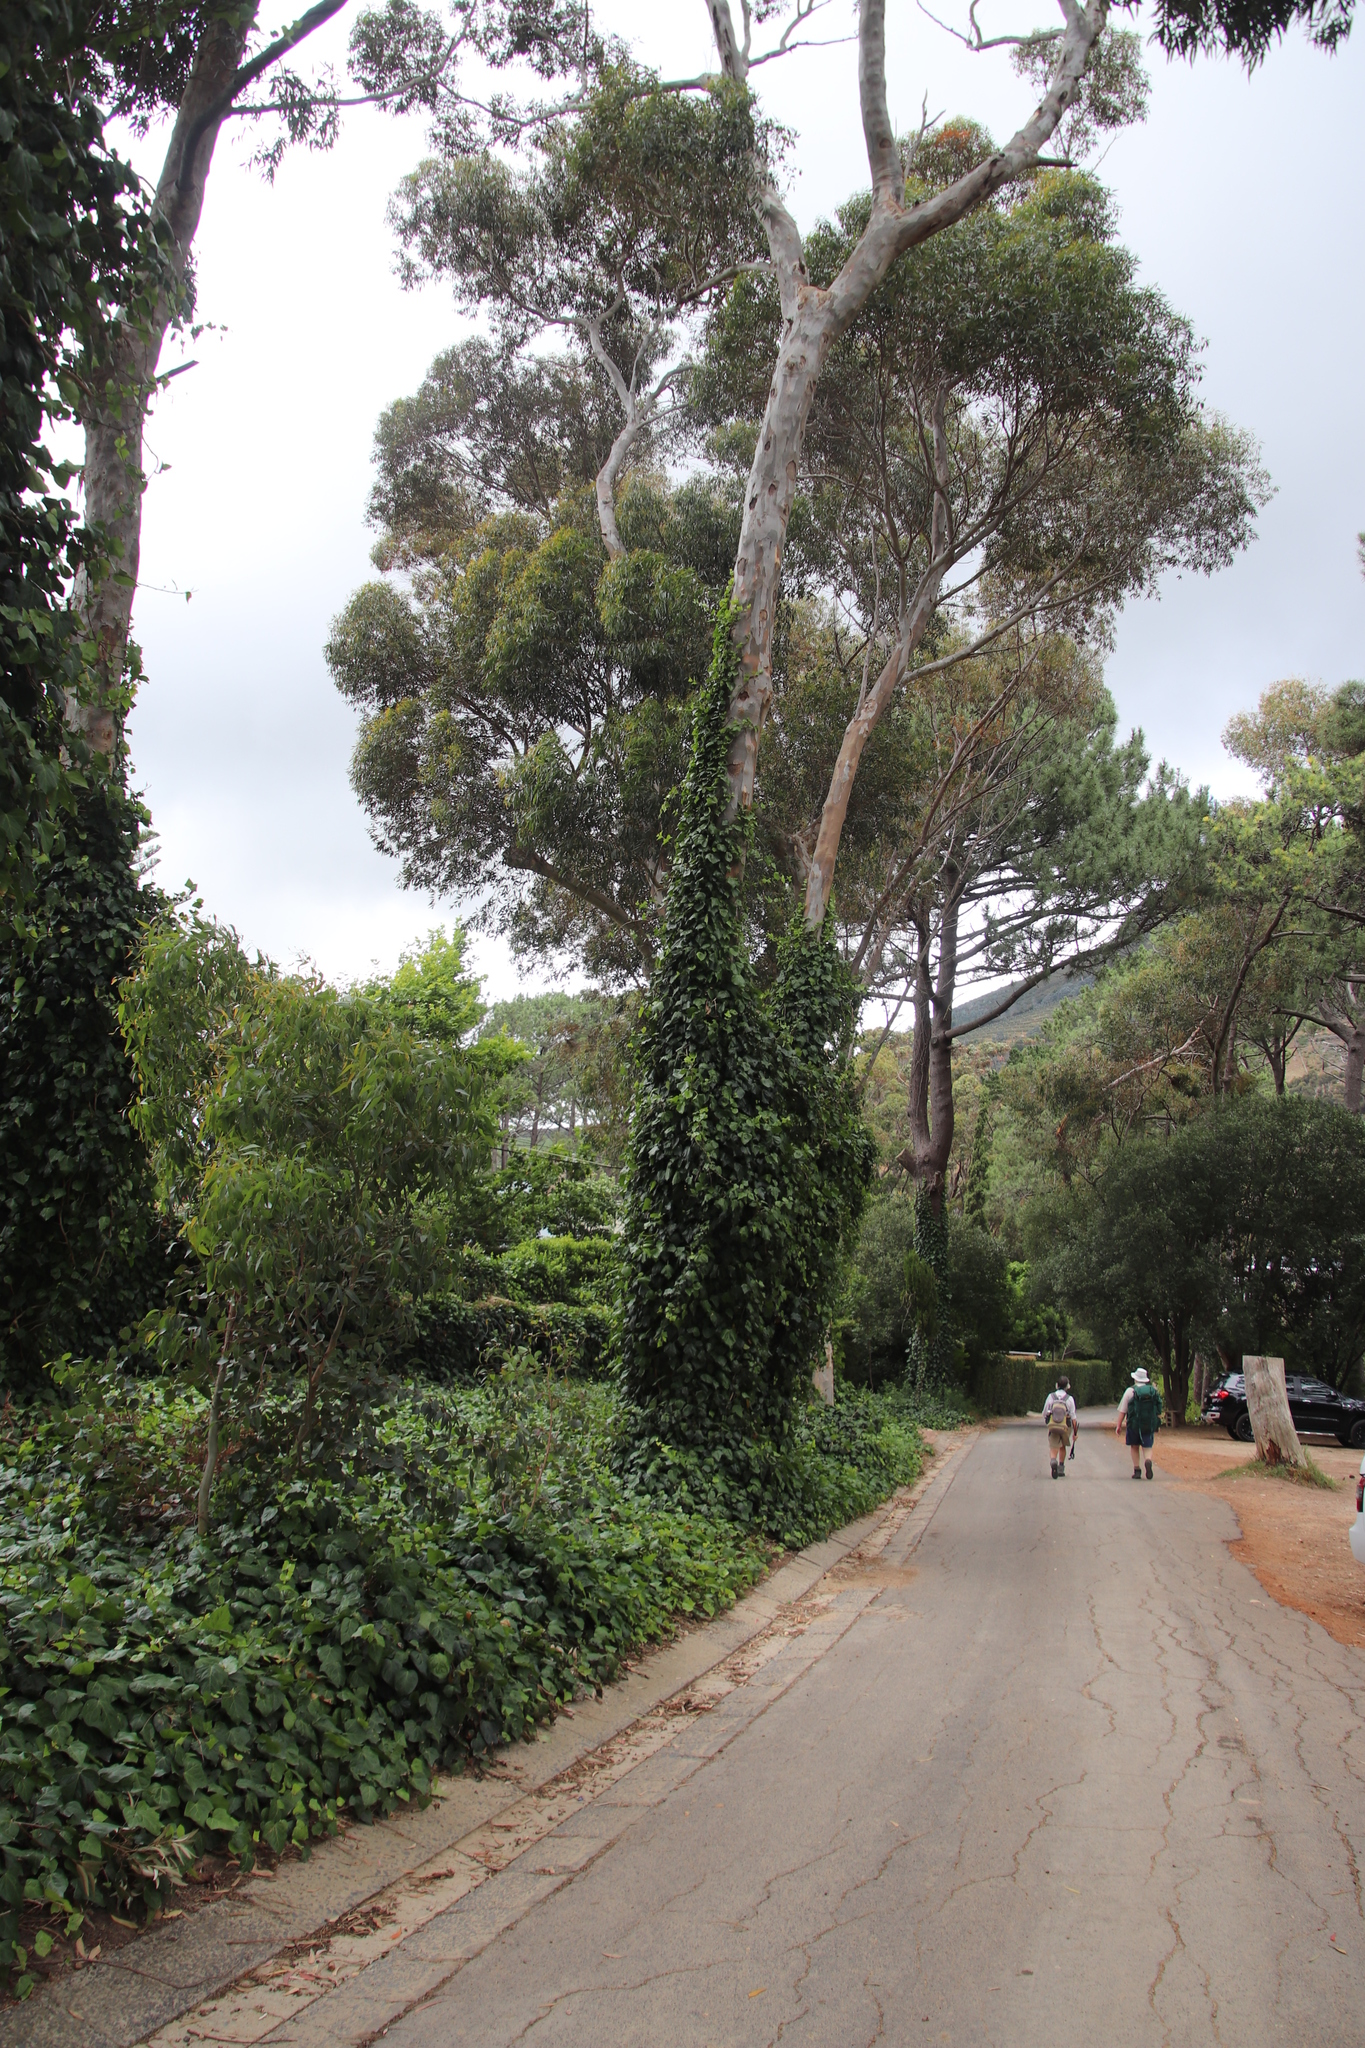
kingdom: Plantae
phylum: Tracheophyta
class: Magnoliopsida
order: Apiales
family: Araliaceae
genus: Hedera
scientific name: Hedera canariensis
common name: Madeira ivy
